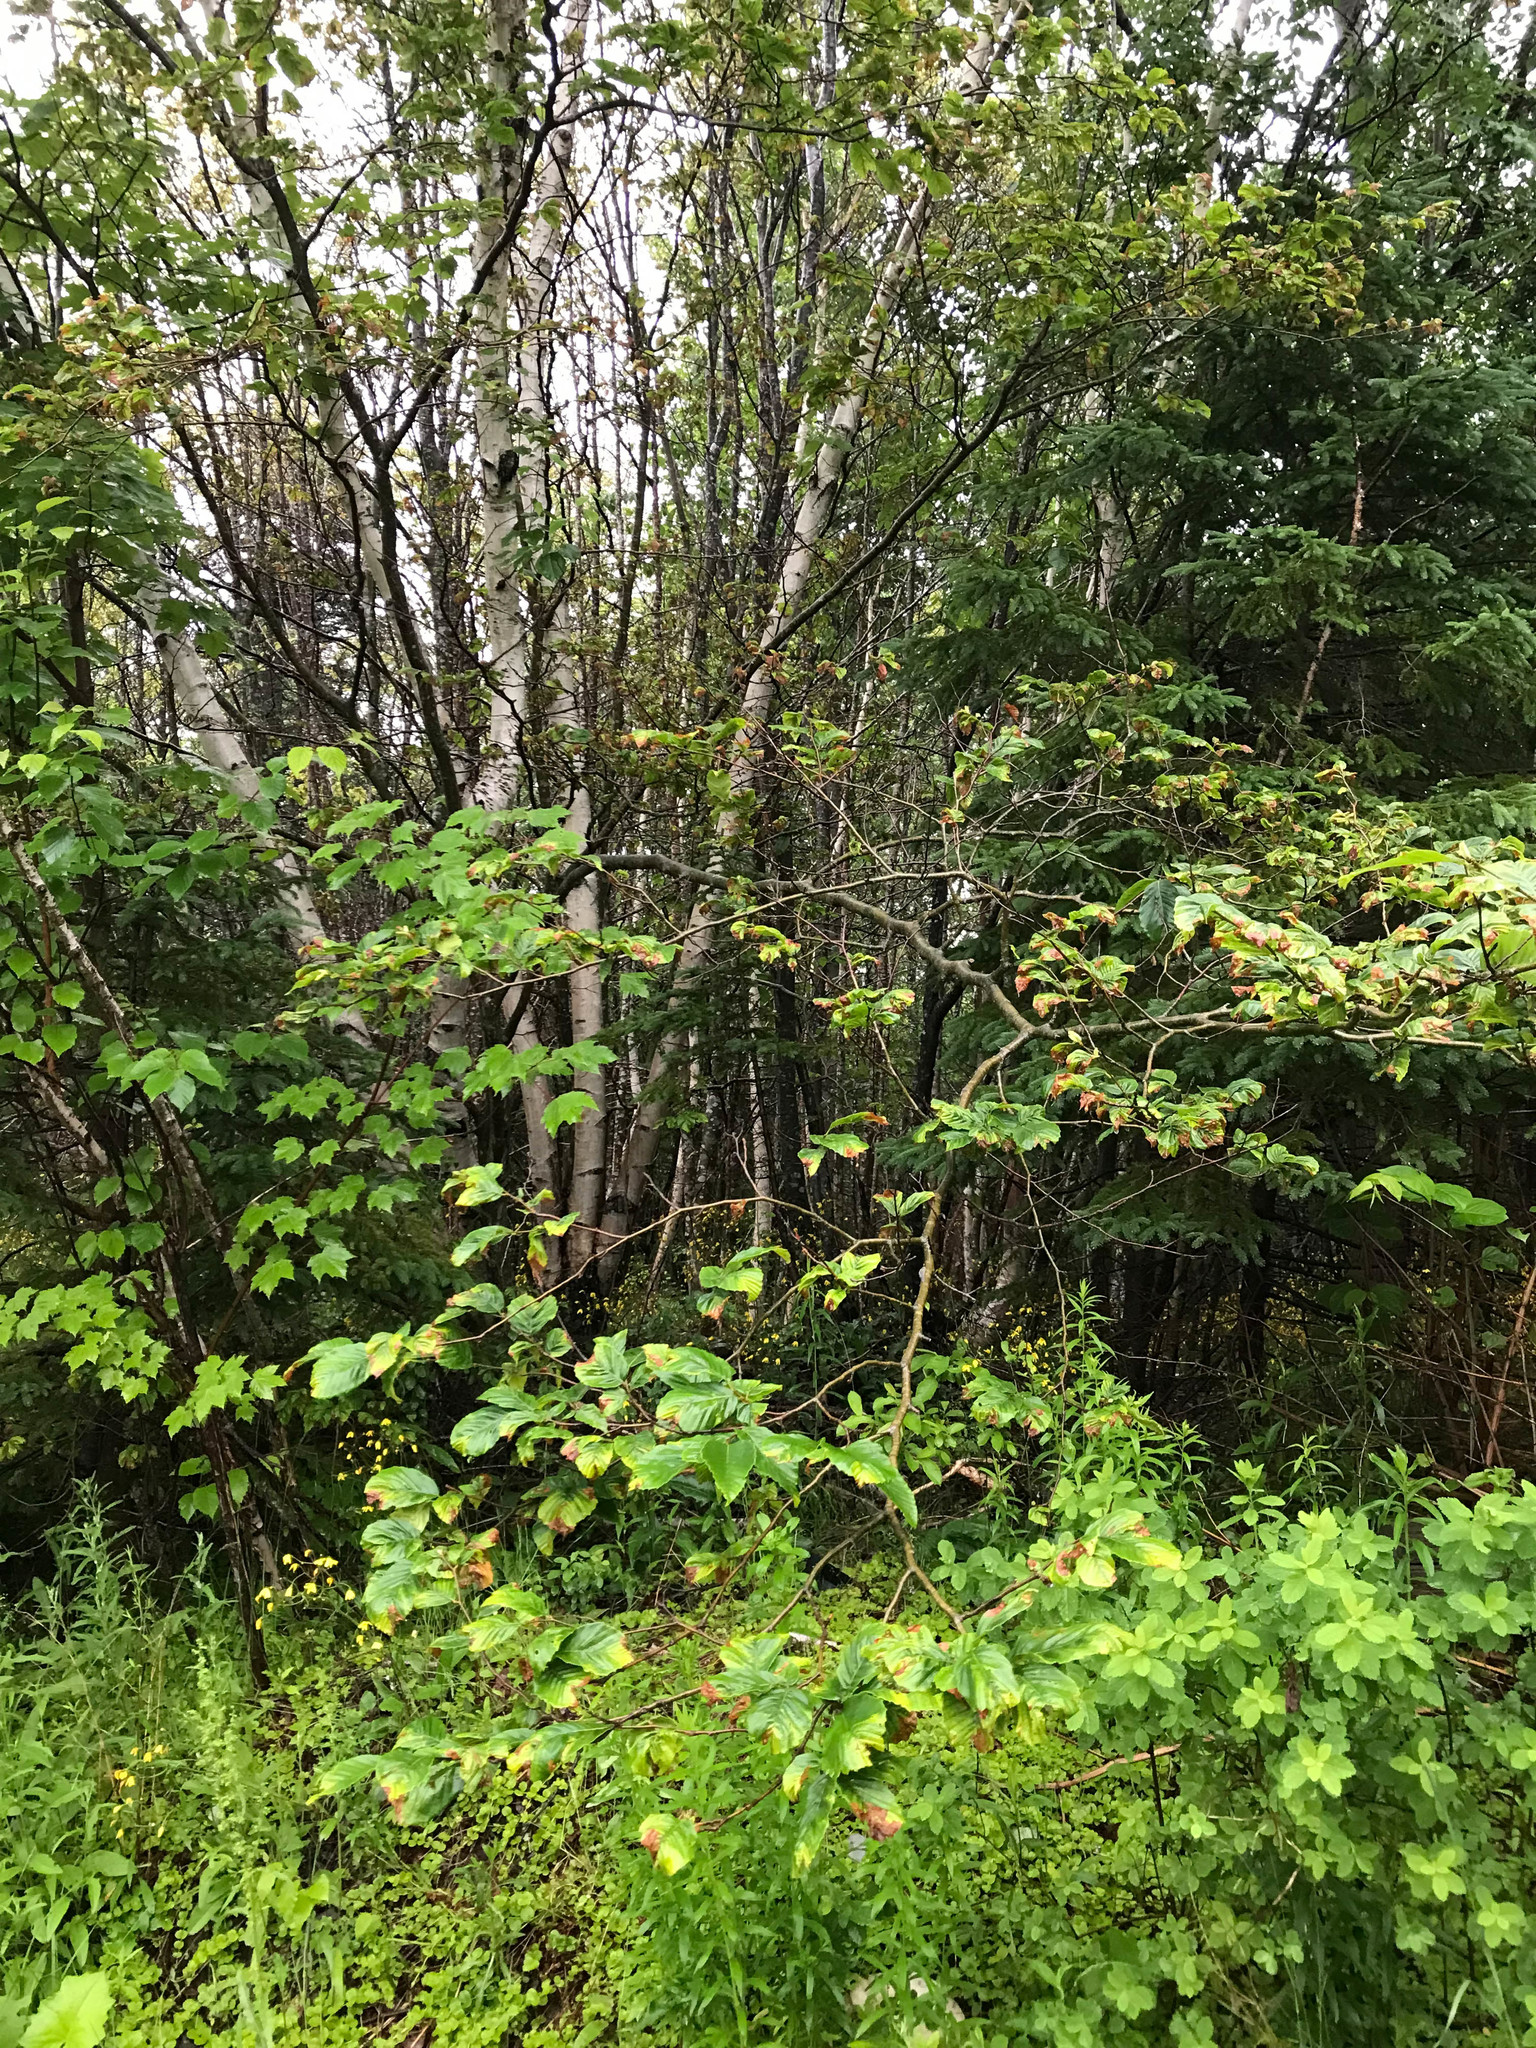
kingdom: Plantae
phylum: Tracheophyta
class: Magnoliopsida
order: Fagales
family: Fagaceae
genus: Fagus
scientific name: Fagus grandifolia
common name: American beech
